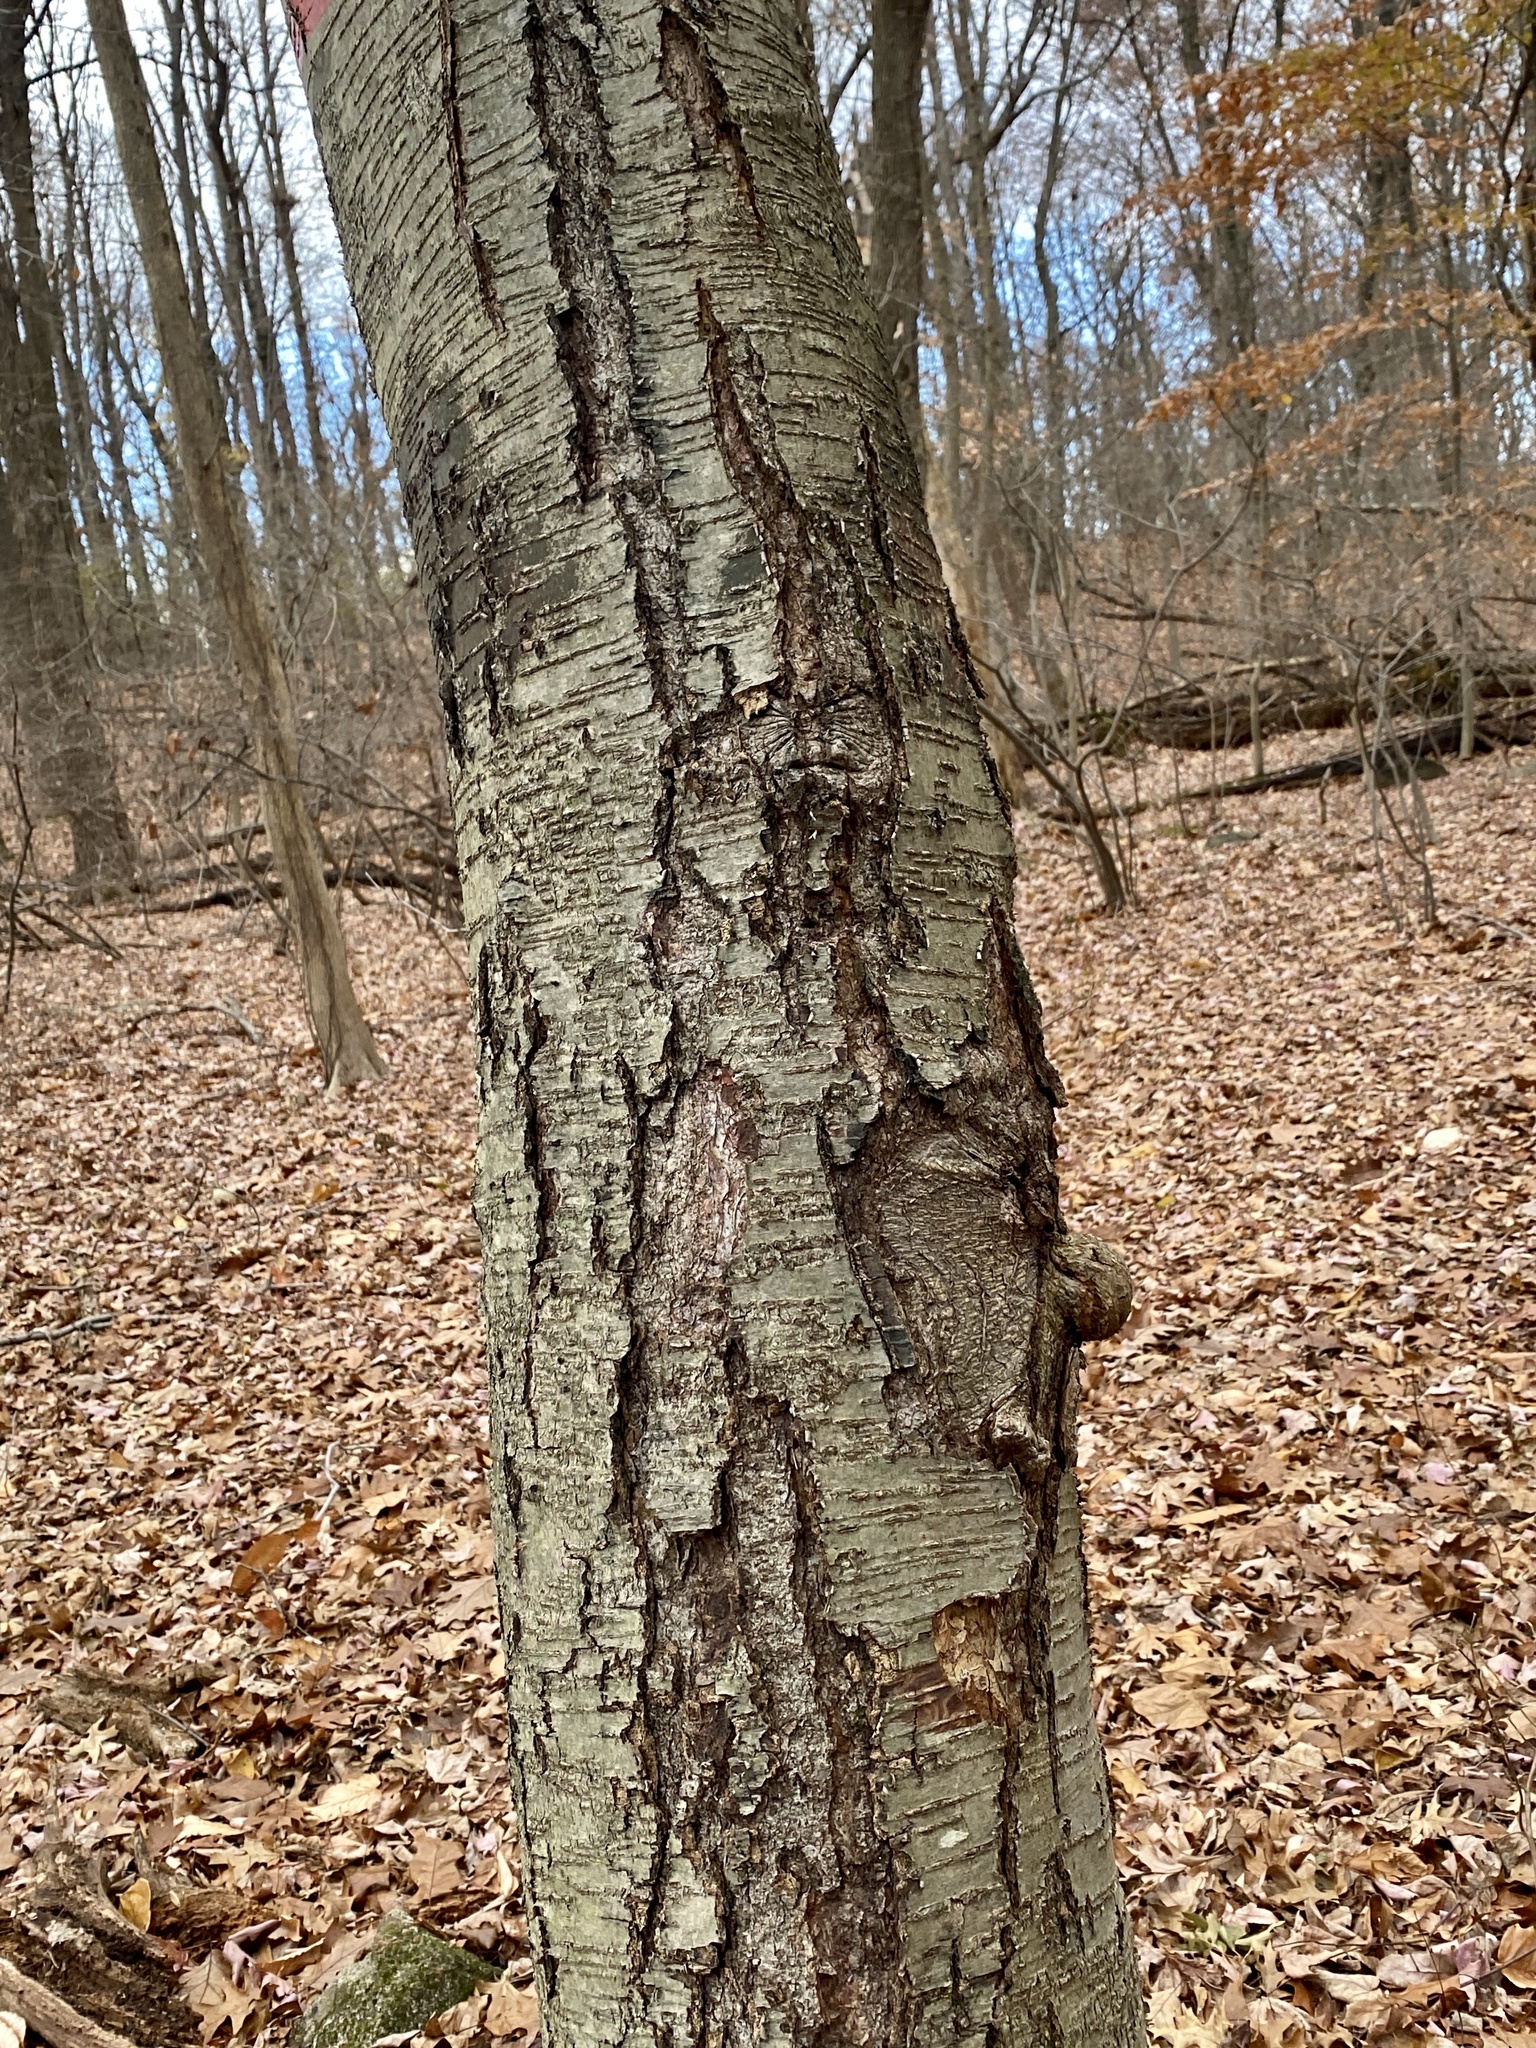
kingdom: Plantae
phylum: Tracheophyta
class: Magnoliopsida
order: Fagales
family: Betulaceae
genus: Betula
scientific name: Betula lenta
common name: Black birch
